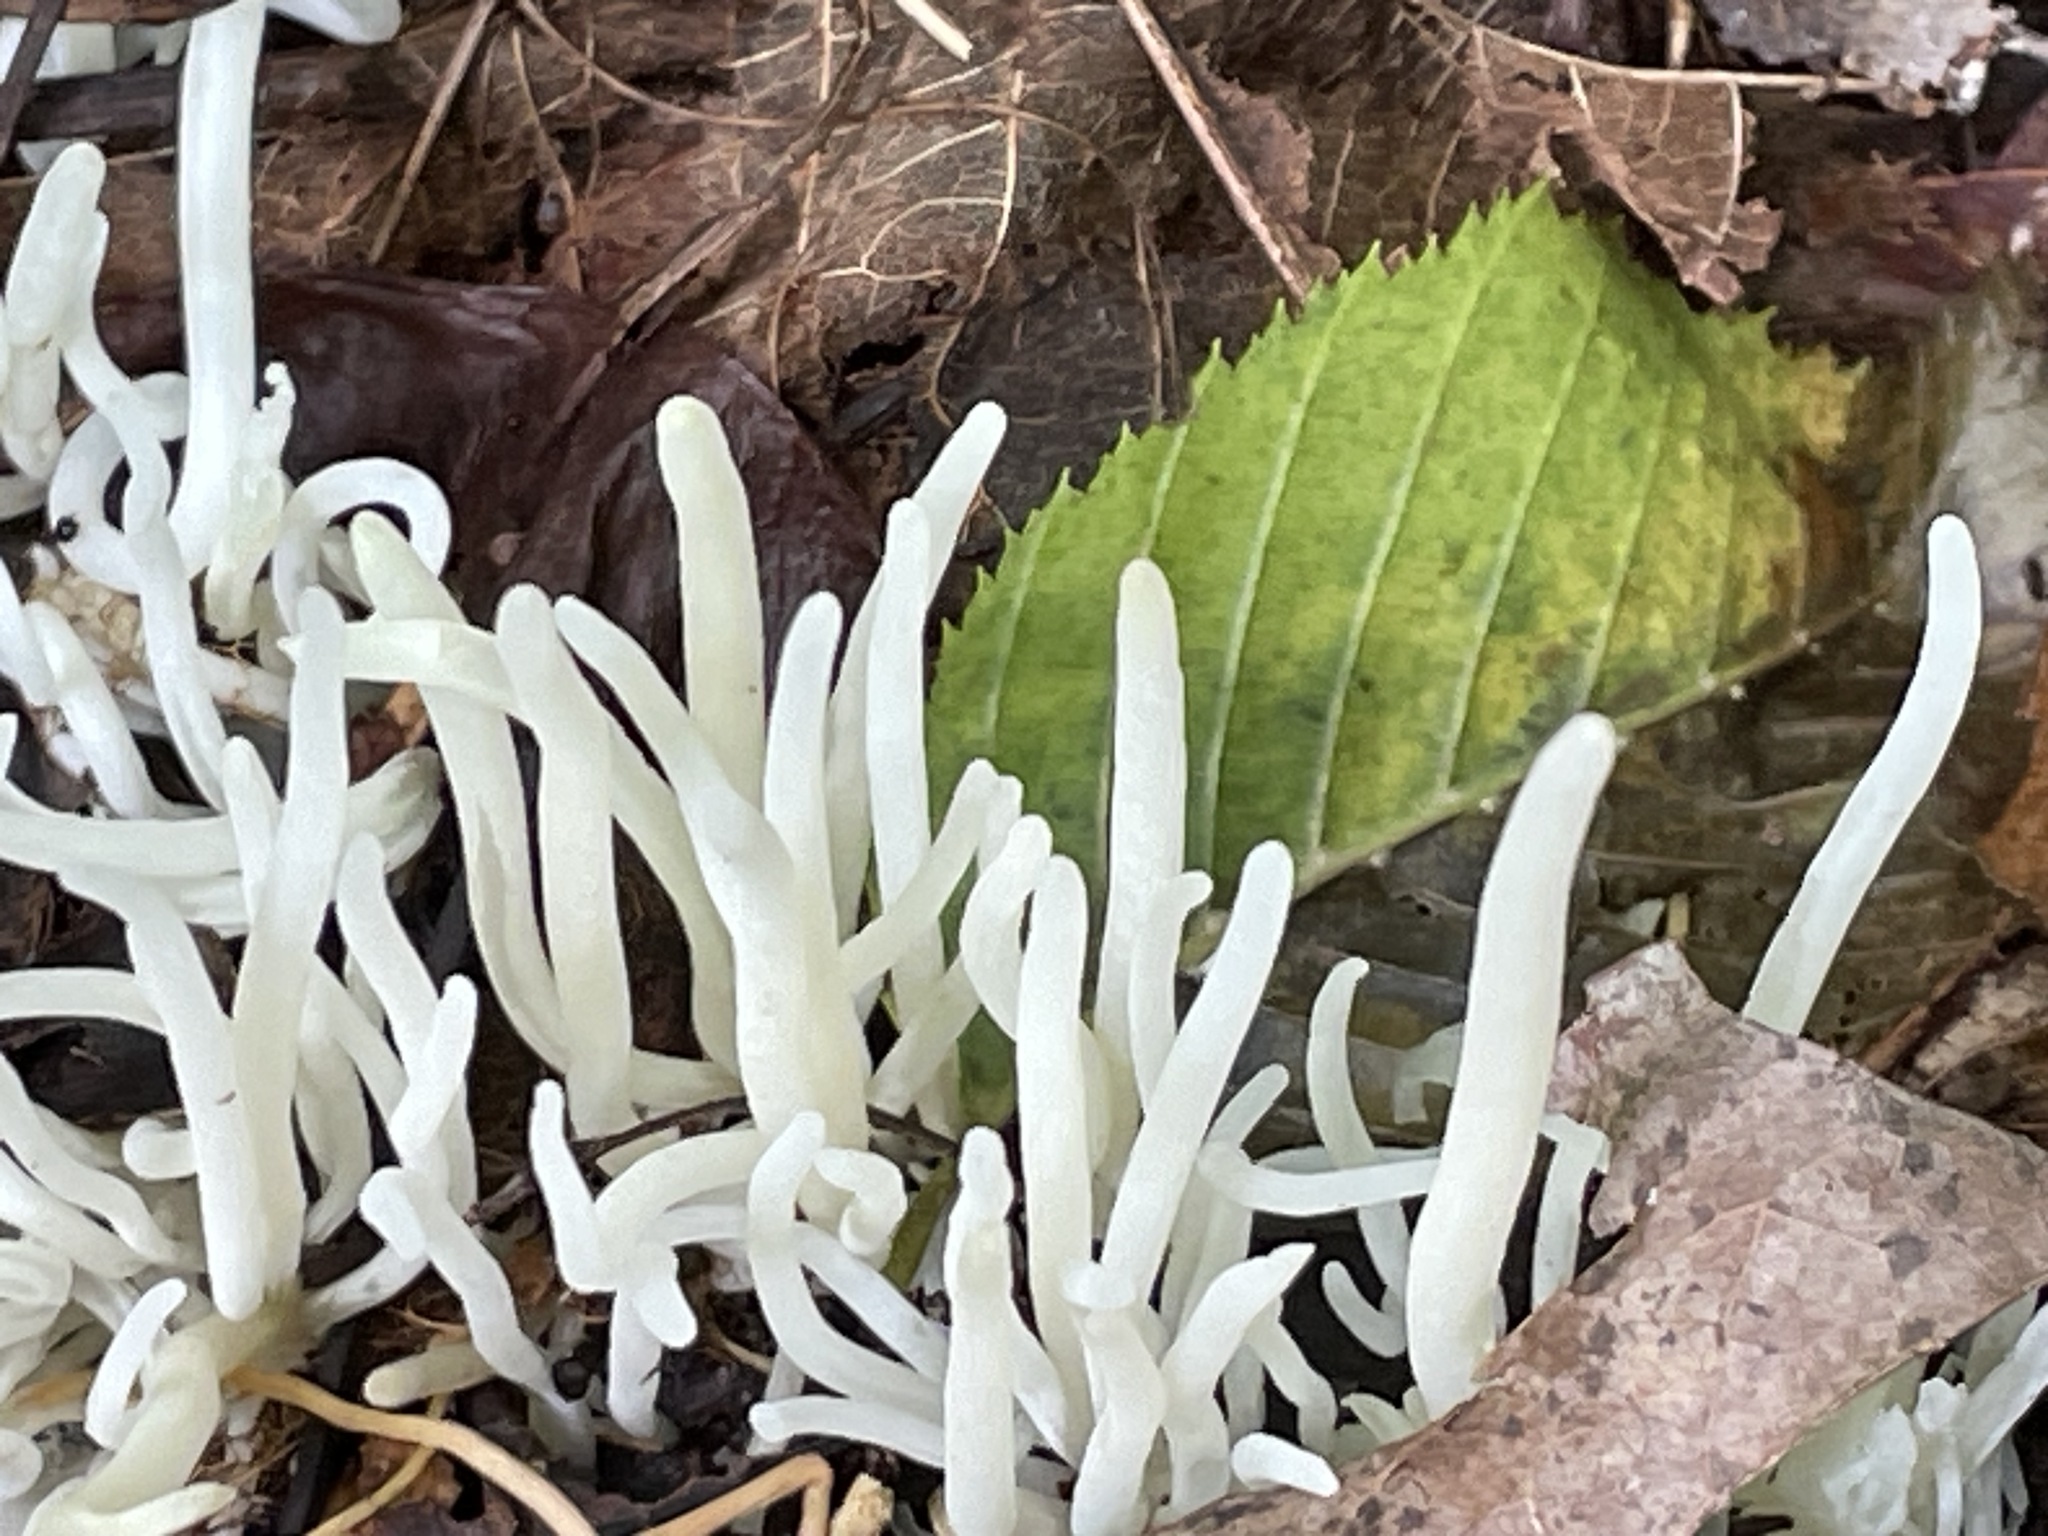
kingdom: Fungi
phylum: Basidiomycota
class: Agaricomycetes
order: Agaricales
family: Clavariaceae
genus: Clavaria
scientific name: Clavaria fragilis
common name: White spindles
